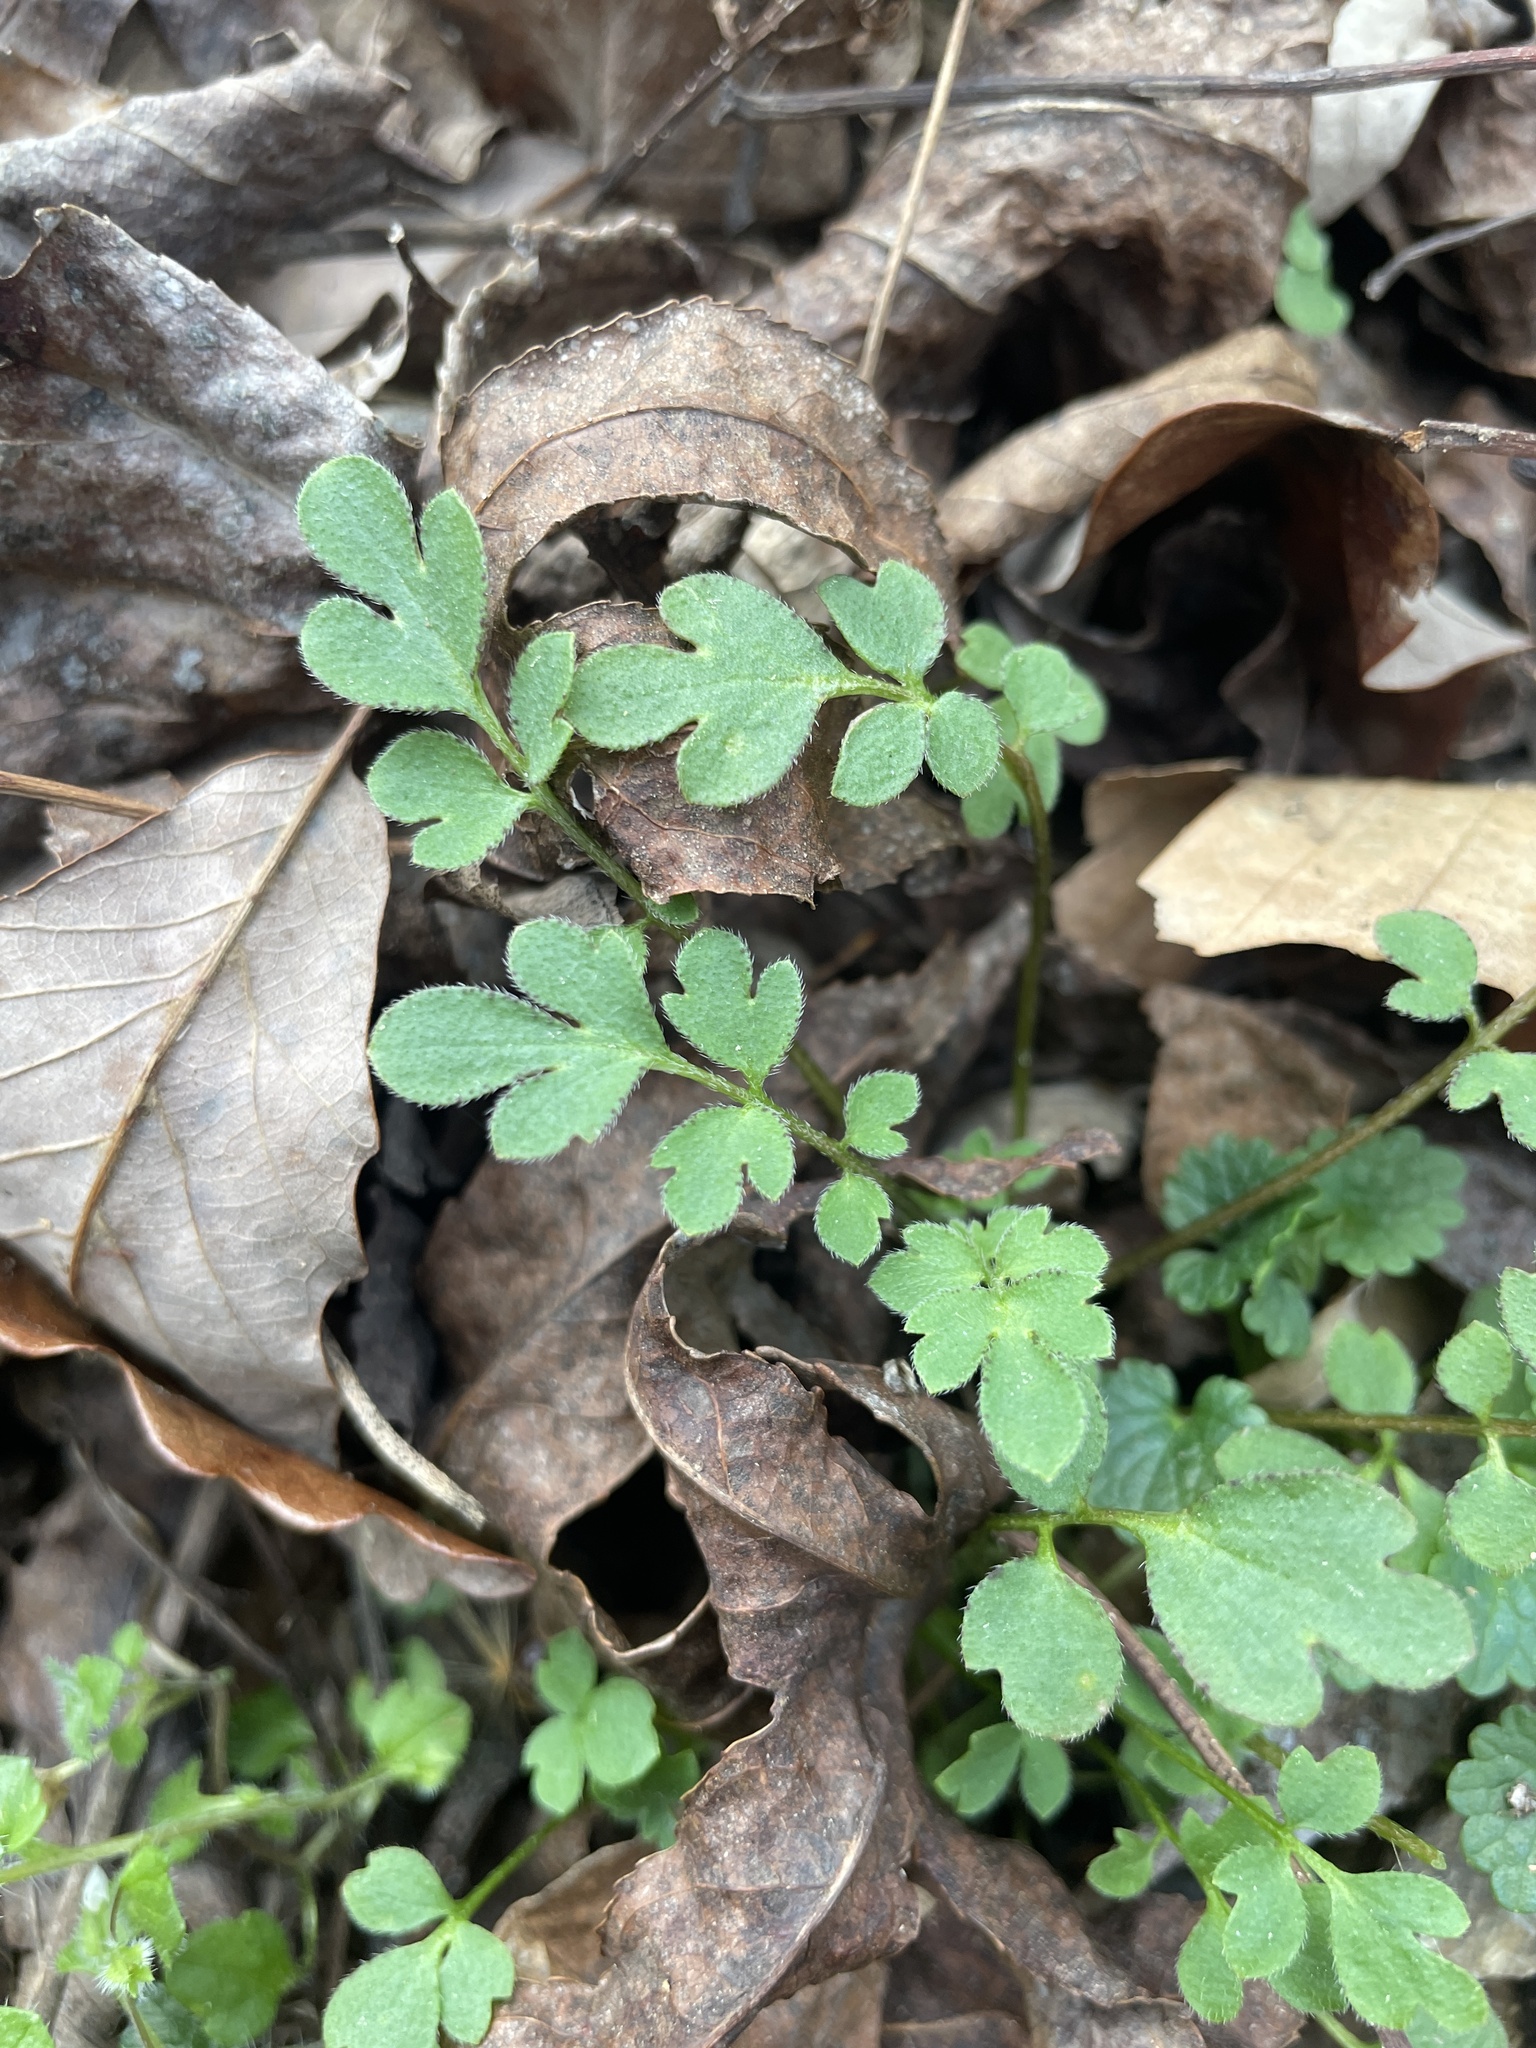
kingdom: Plantae
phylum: Tracheophyta
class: Magnoliopsida
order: Boraginales
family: Hydrophyllaceae
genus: Phacelia
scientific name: Phacelia covillei
